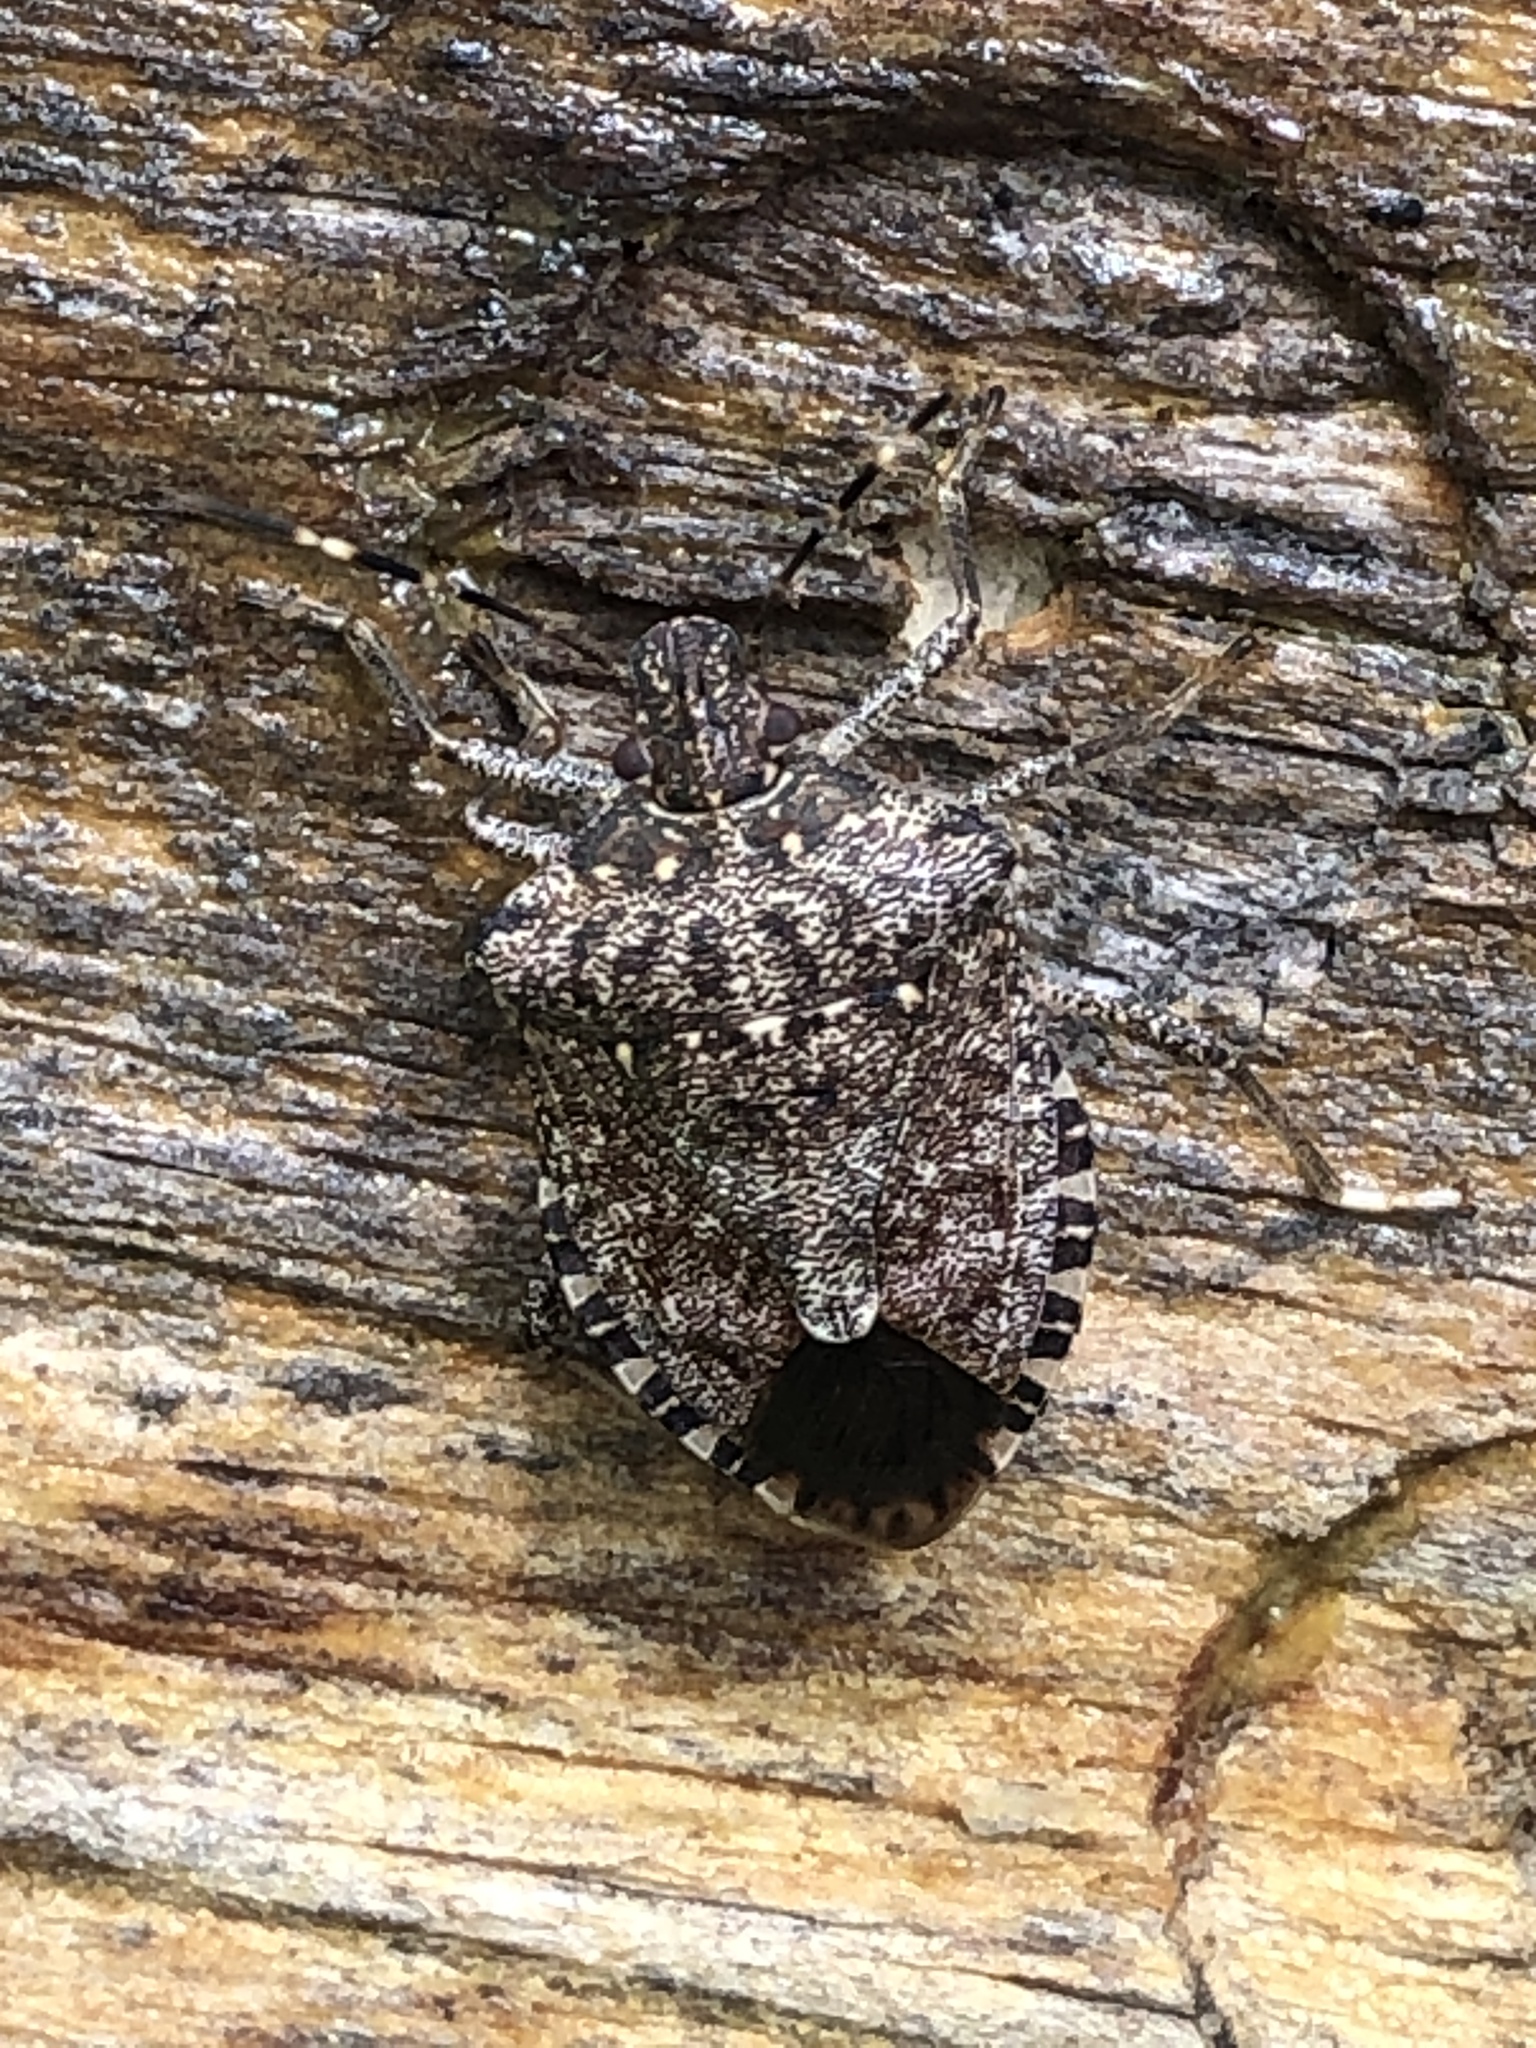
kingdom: Animalia
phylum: Arthropoda
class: Insecta
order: Hemiptera
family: Pentatomidae
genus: Halyomorpha
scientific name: Halyomorpha halys
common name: Brown marmorated stink bug
